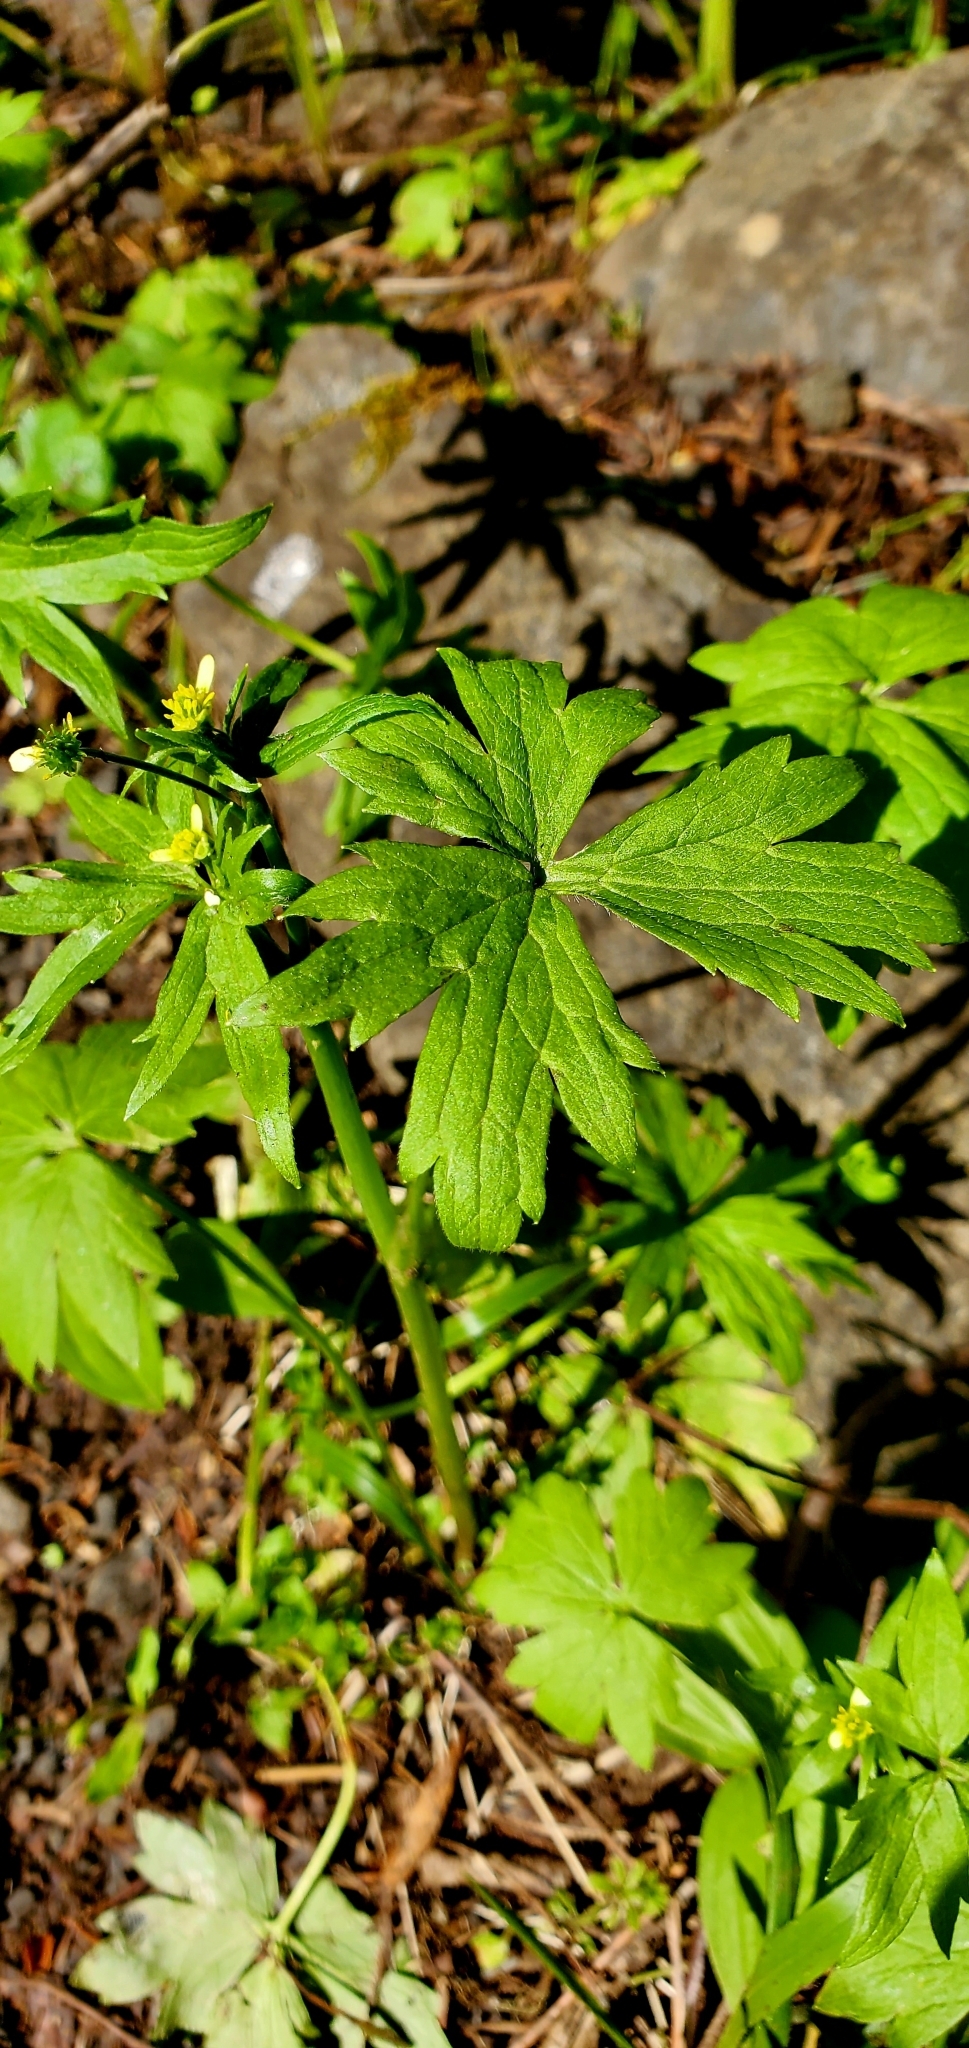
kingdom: Plantae
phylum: Tracheophyta
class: Magnoliopsida
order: Ranunculales
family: Ranunculaceae
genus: Ranunculus
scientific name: Ranunculus uncinatus
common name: Little buttercup
